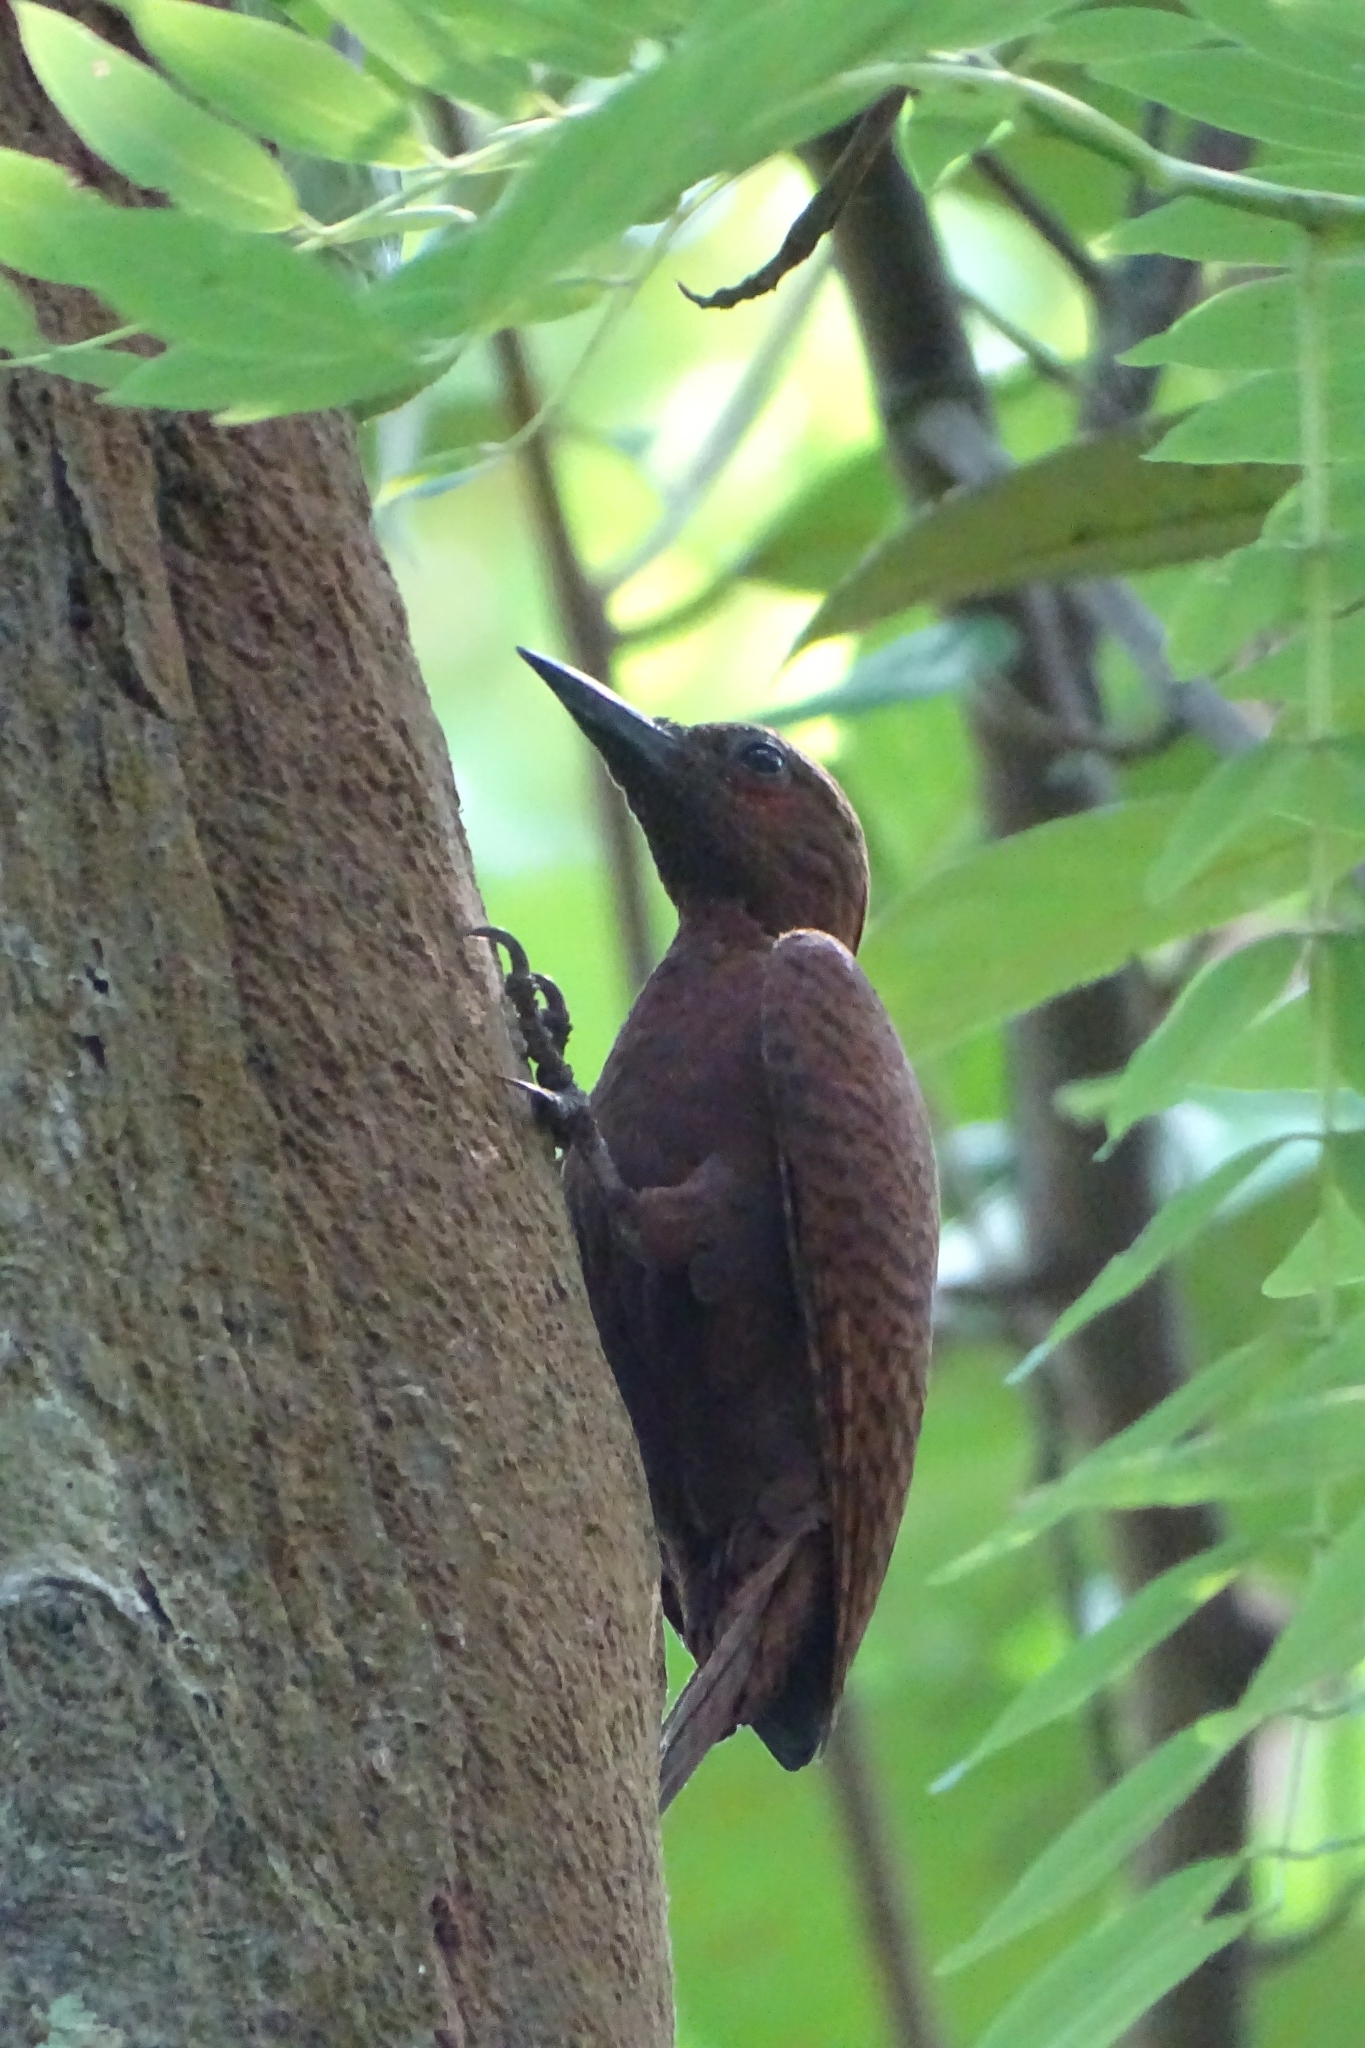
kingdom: Animalia
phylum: Chordata
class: Aves
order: Piciformes
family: Picidae
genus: Micropternus
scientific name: Micropternus brachyurus
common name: Rufous woodpecker
